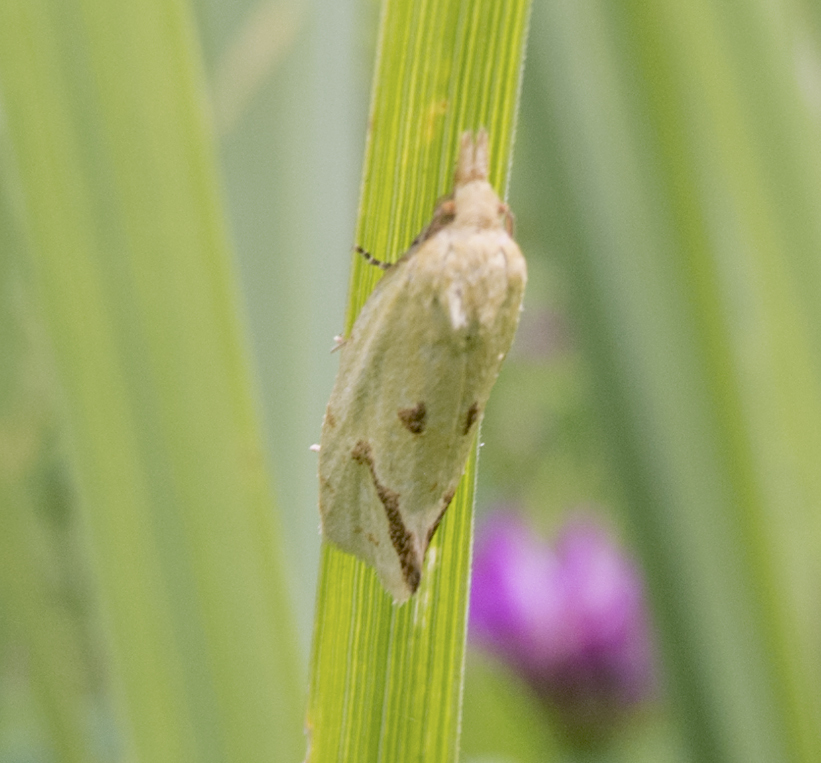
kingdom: Animalia
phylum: Arthropoda
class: Insecta
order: Lepidoptera
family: Tortricidae
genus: Agapeta
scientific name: Agapeta hamana
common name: Common yellow conch
